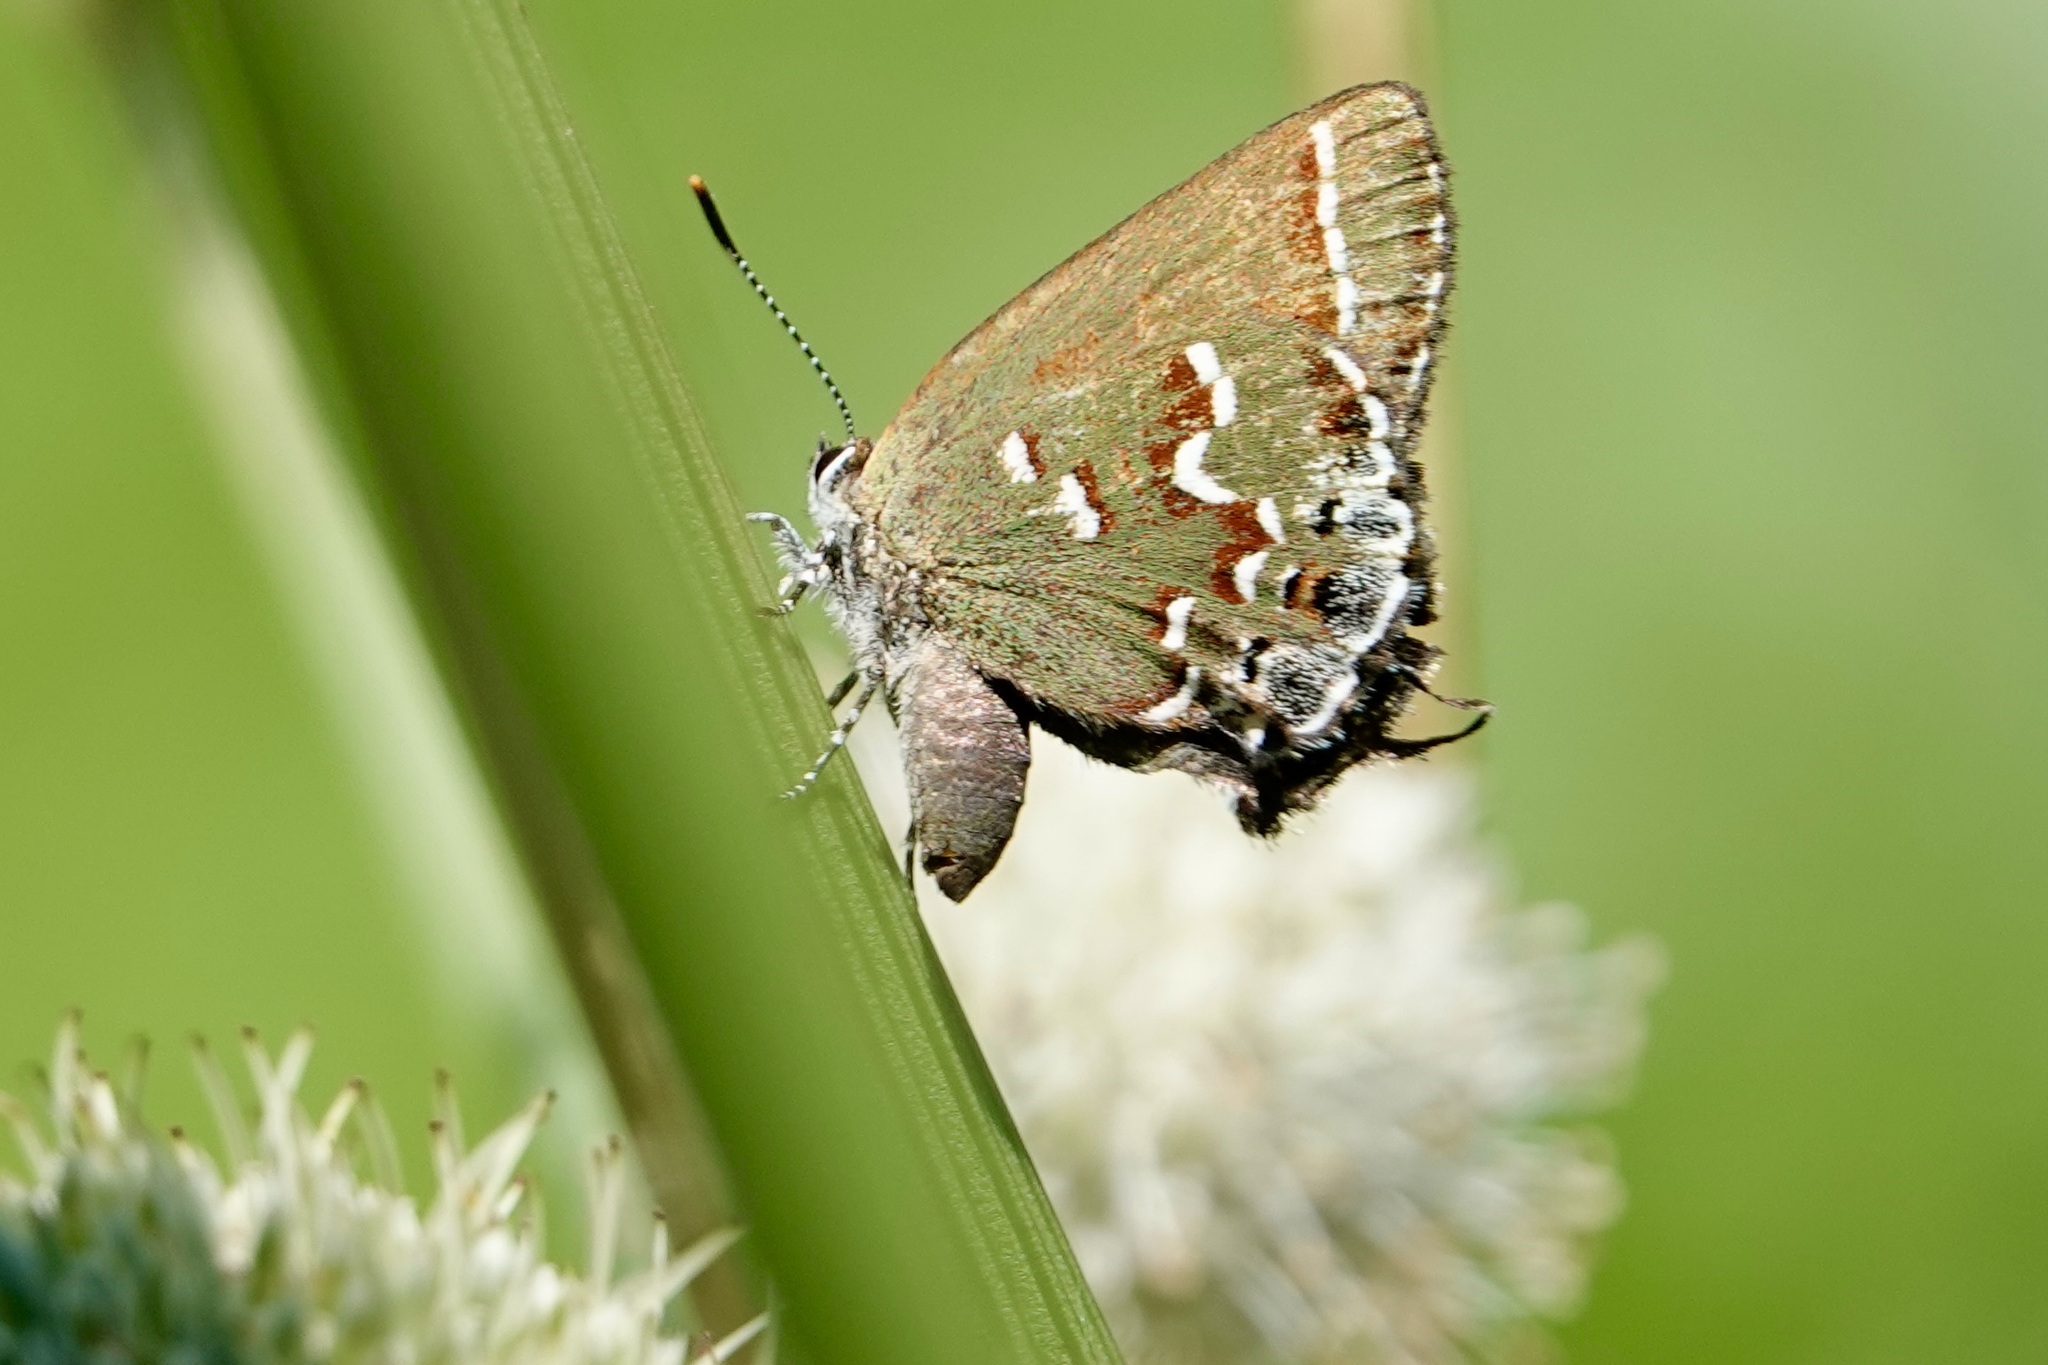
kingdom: Animalia
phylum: Arthropoda
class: Insecta
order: Lepidoptera
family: Lycaenidae
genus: Mitoura
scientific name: Mitoura gryneus
